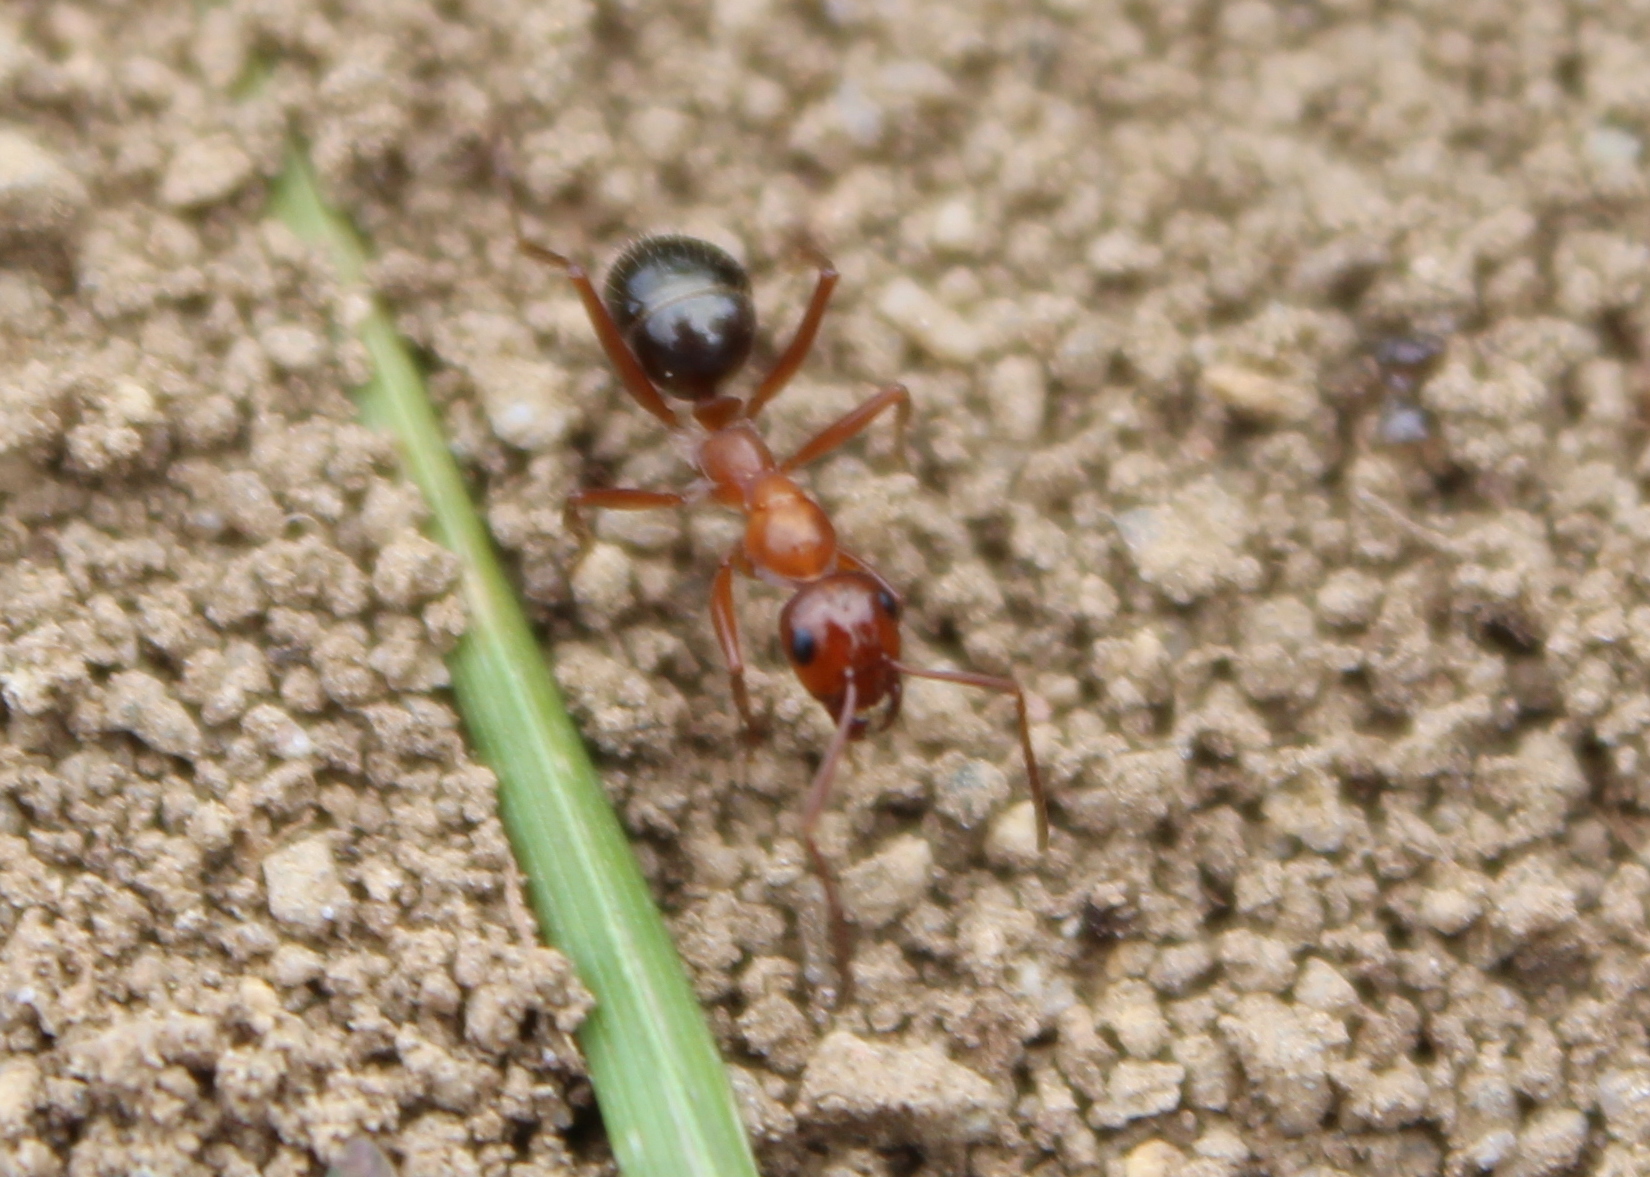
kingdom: Animalia
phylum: Arthropoda
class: Insecta
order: Hymenoptera
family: Formicidae
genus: Formica
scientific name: Formica
